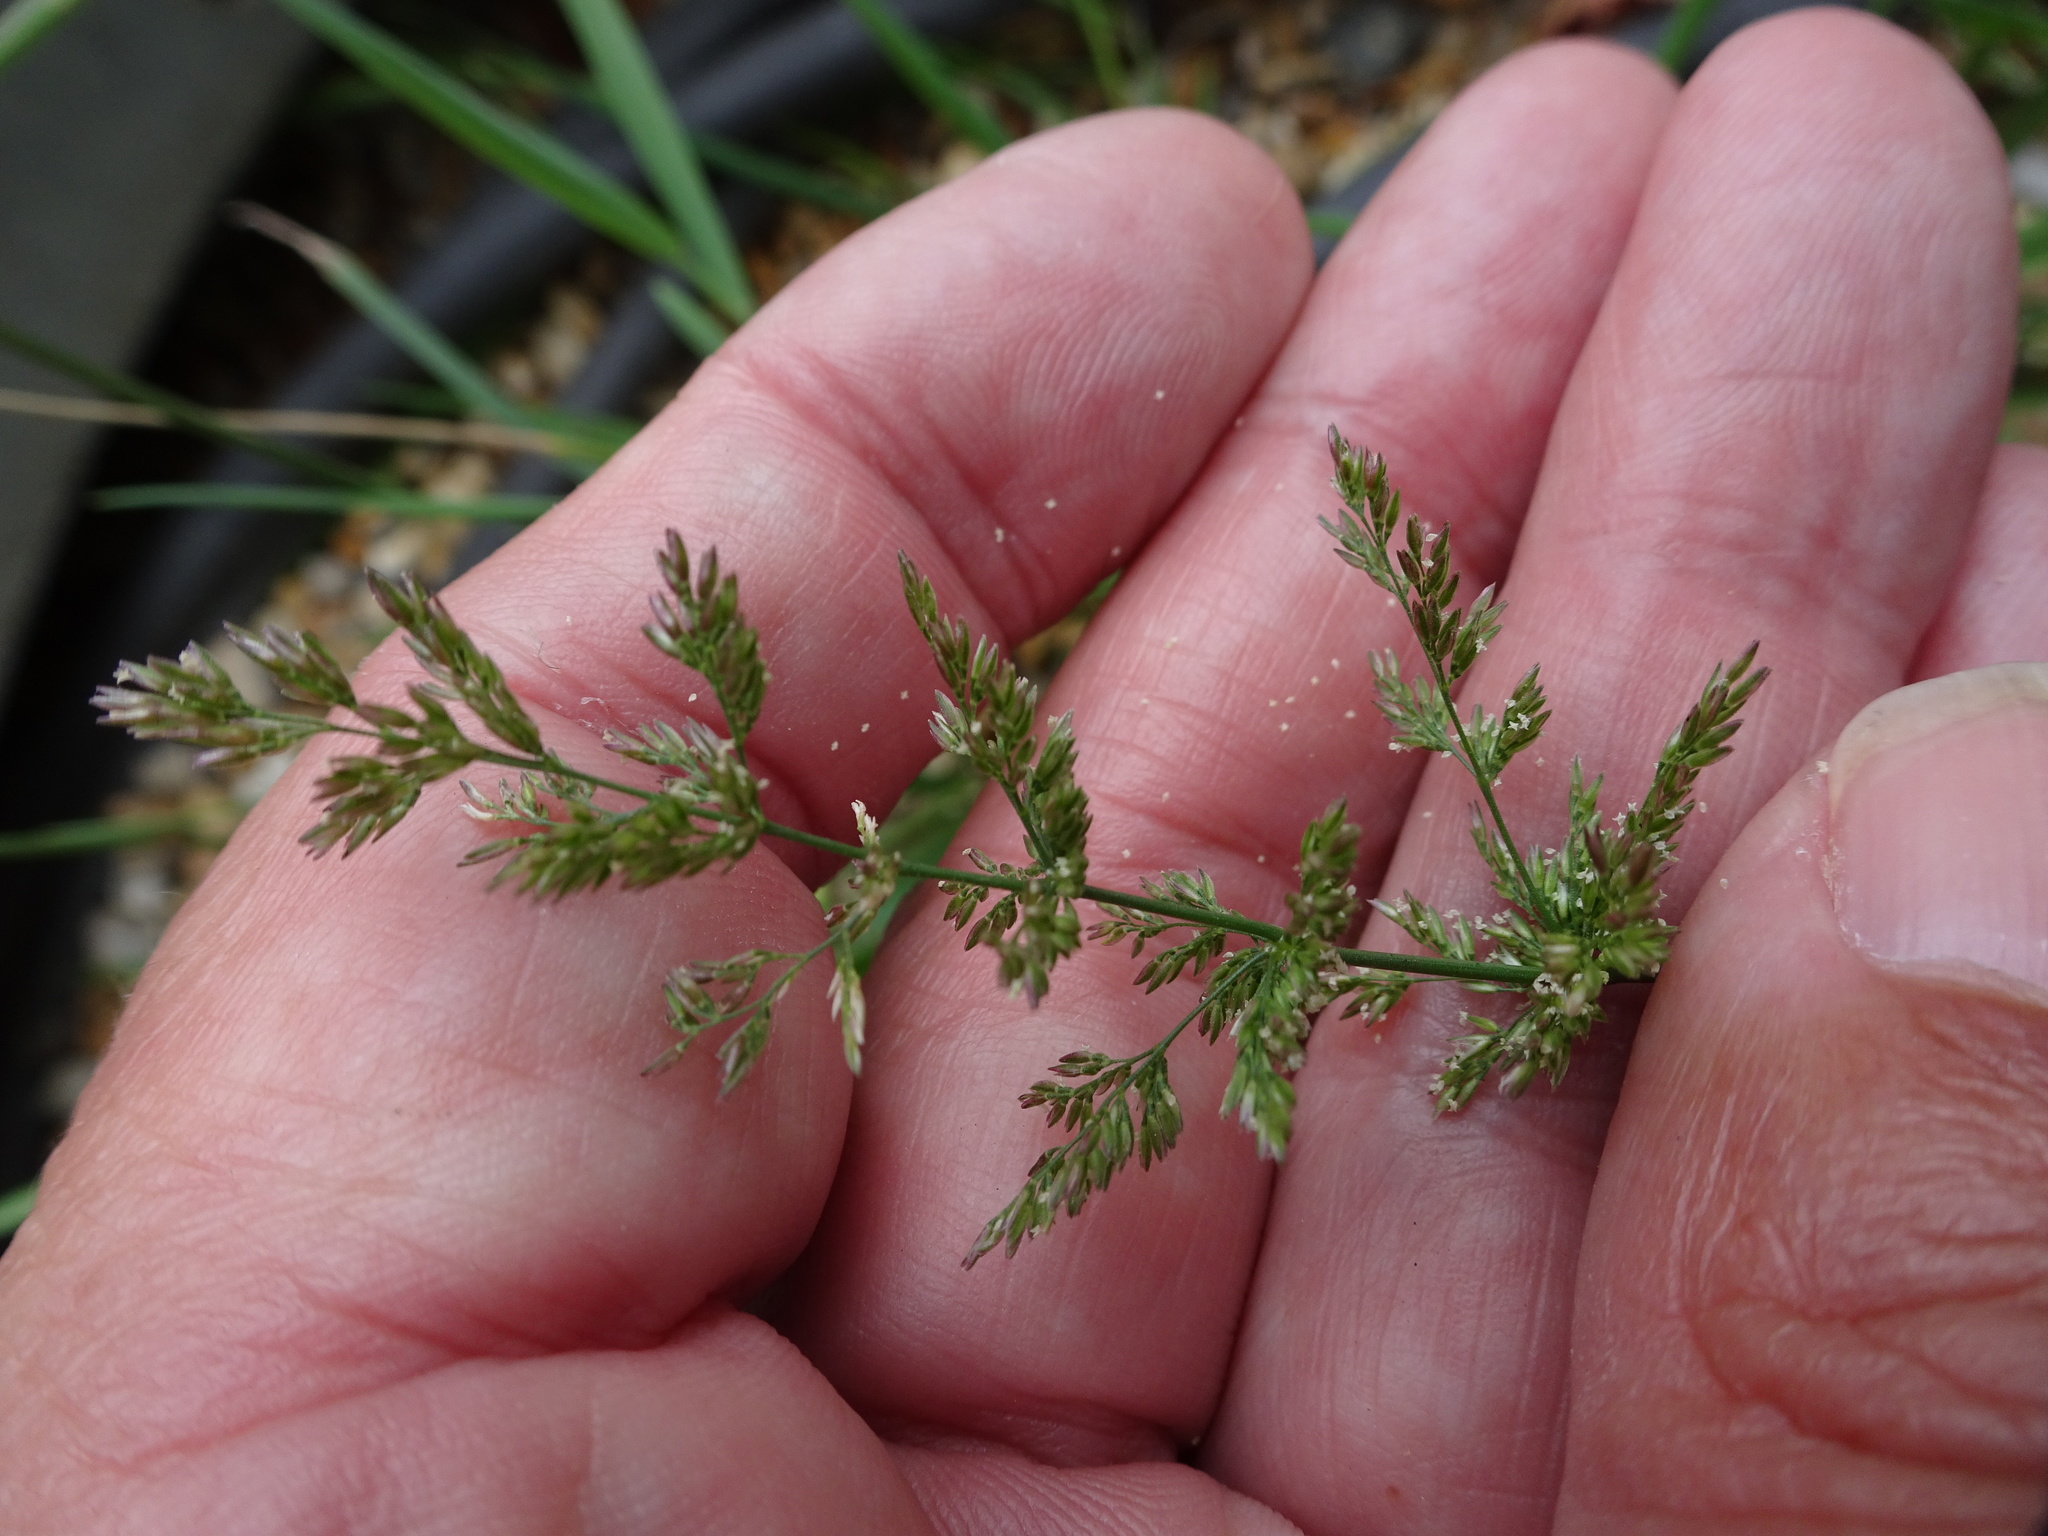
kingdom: Plantae
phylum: Tracheophyta
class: Liliopsida
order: Poales
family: Poaceae
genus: Polypogon
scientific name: Polypogon viridis
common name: Water bent
